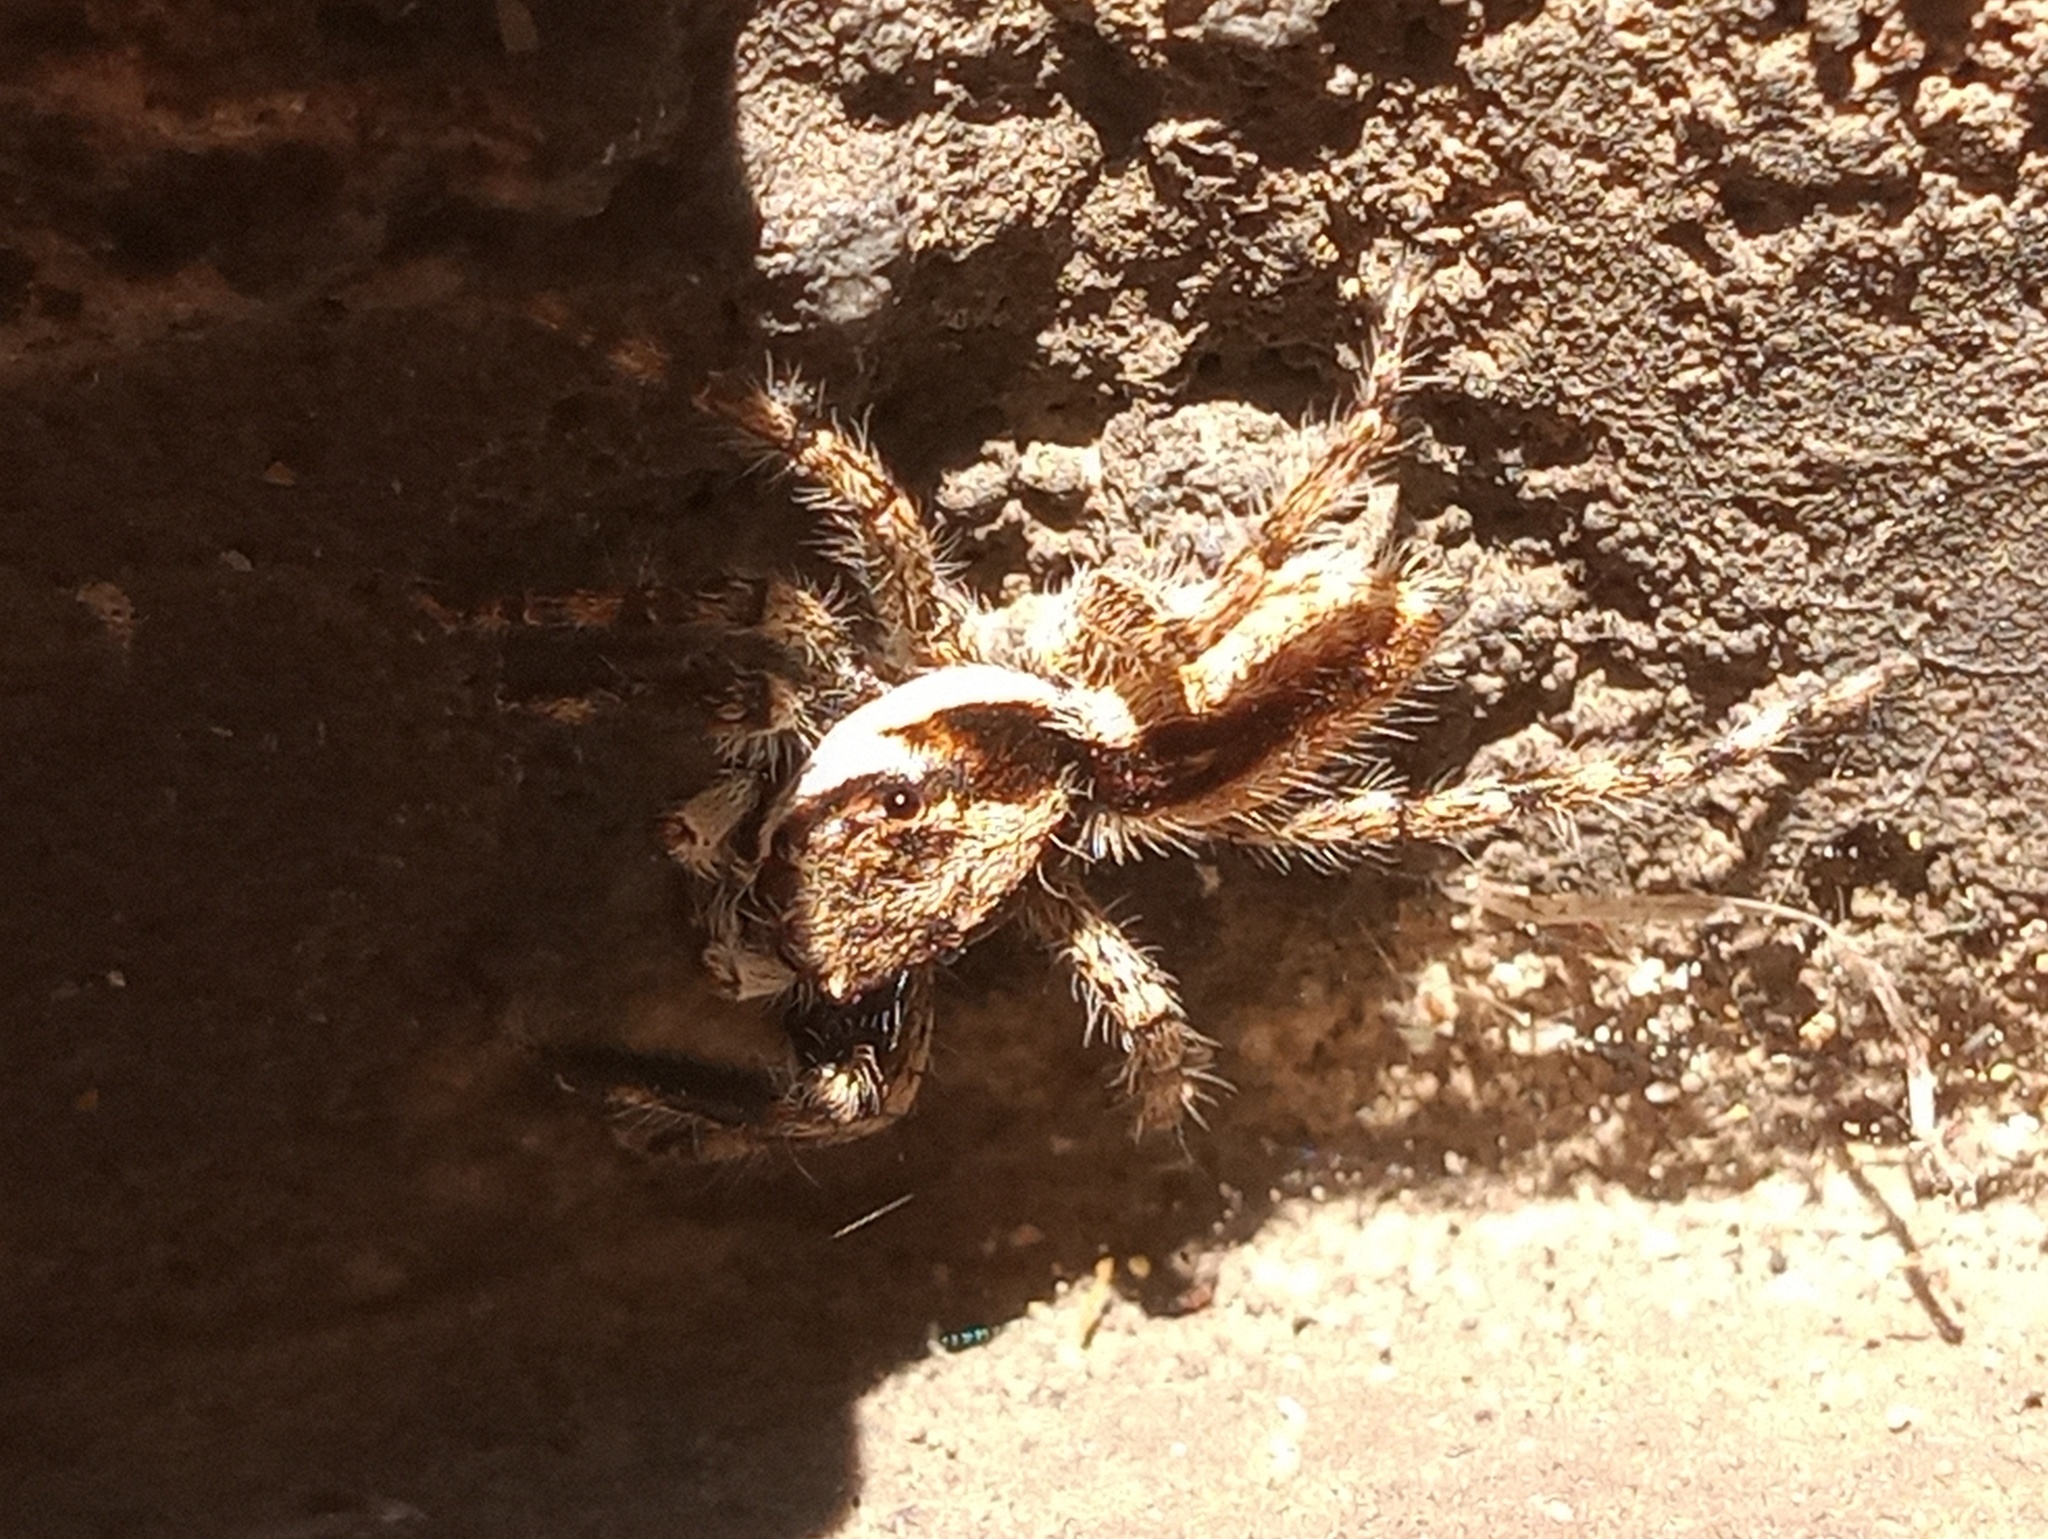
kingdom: Animalia
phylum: Arthropoda
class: Arachnida
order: Araneae
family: Salticidae
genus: Menemerus
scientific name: Menemerus bivittatus
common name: Gray wall jumper
